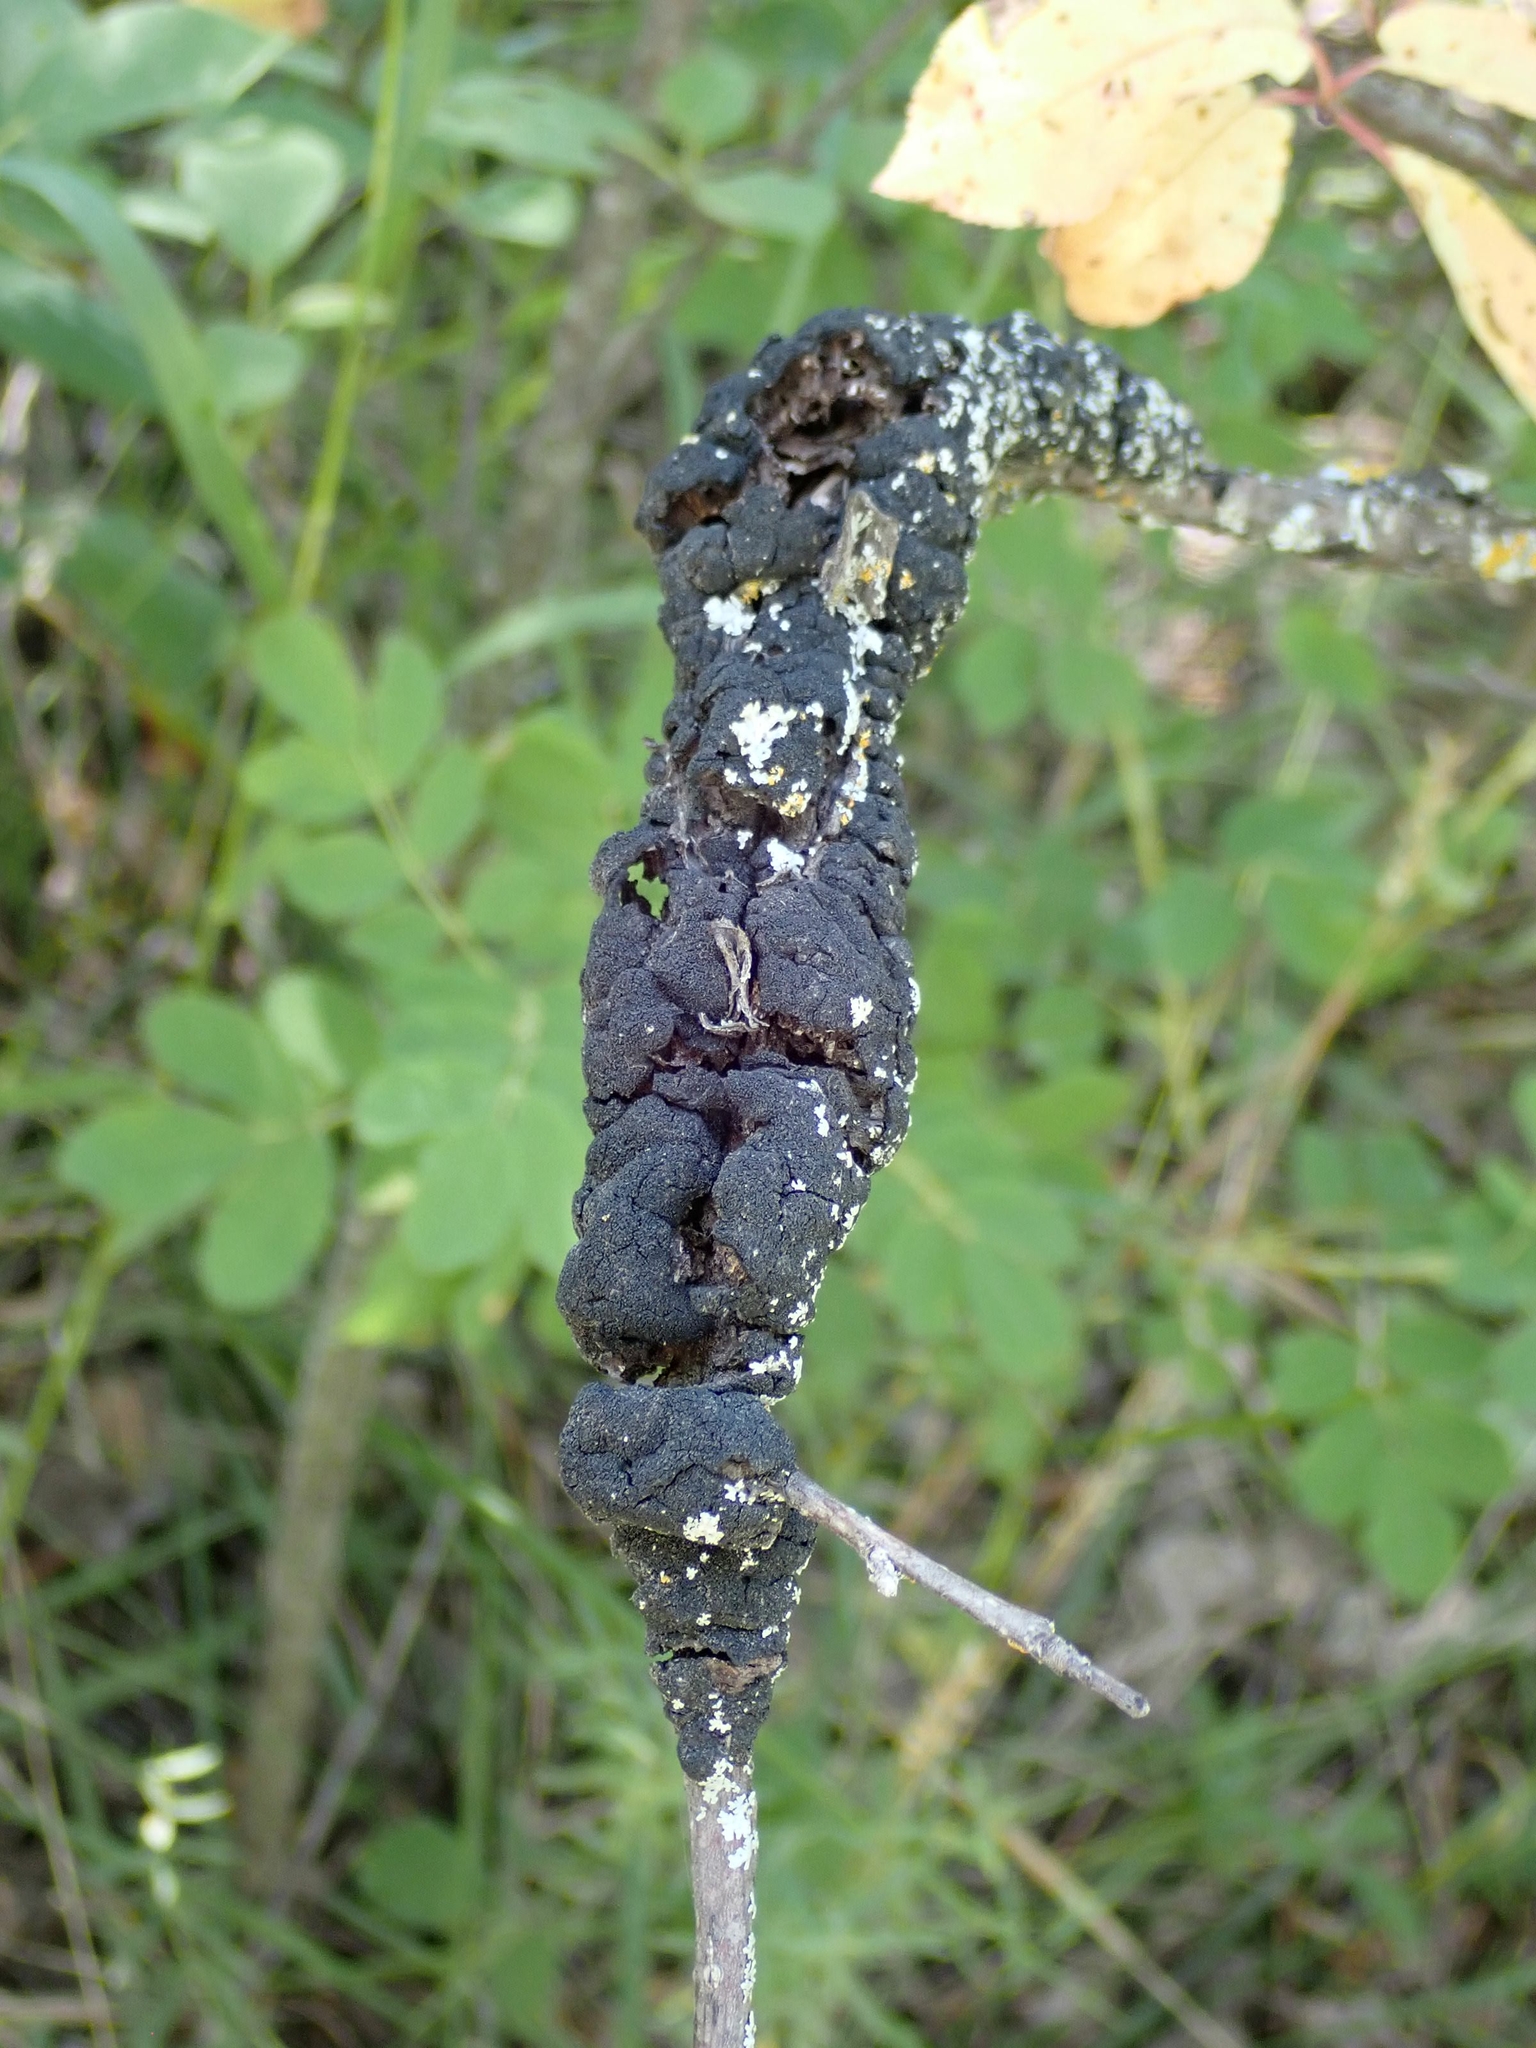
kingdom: Fungi
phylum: Ascomycota
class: Dothideomycetes
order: Venturiales
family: Venturiaceae
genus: Apiosporina
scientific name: Apiosporina morbosa
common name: Black knot
